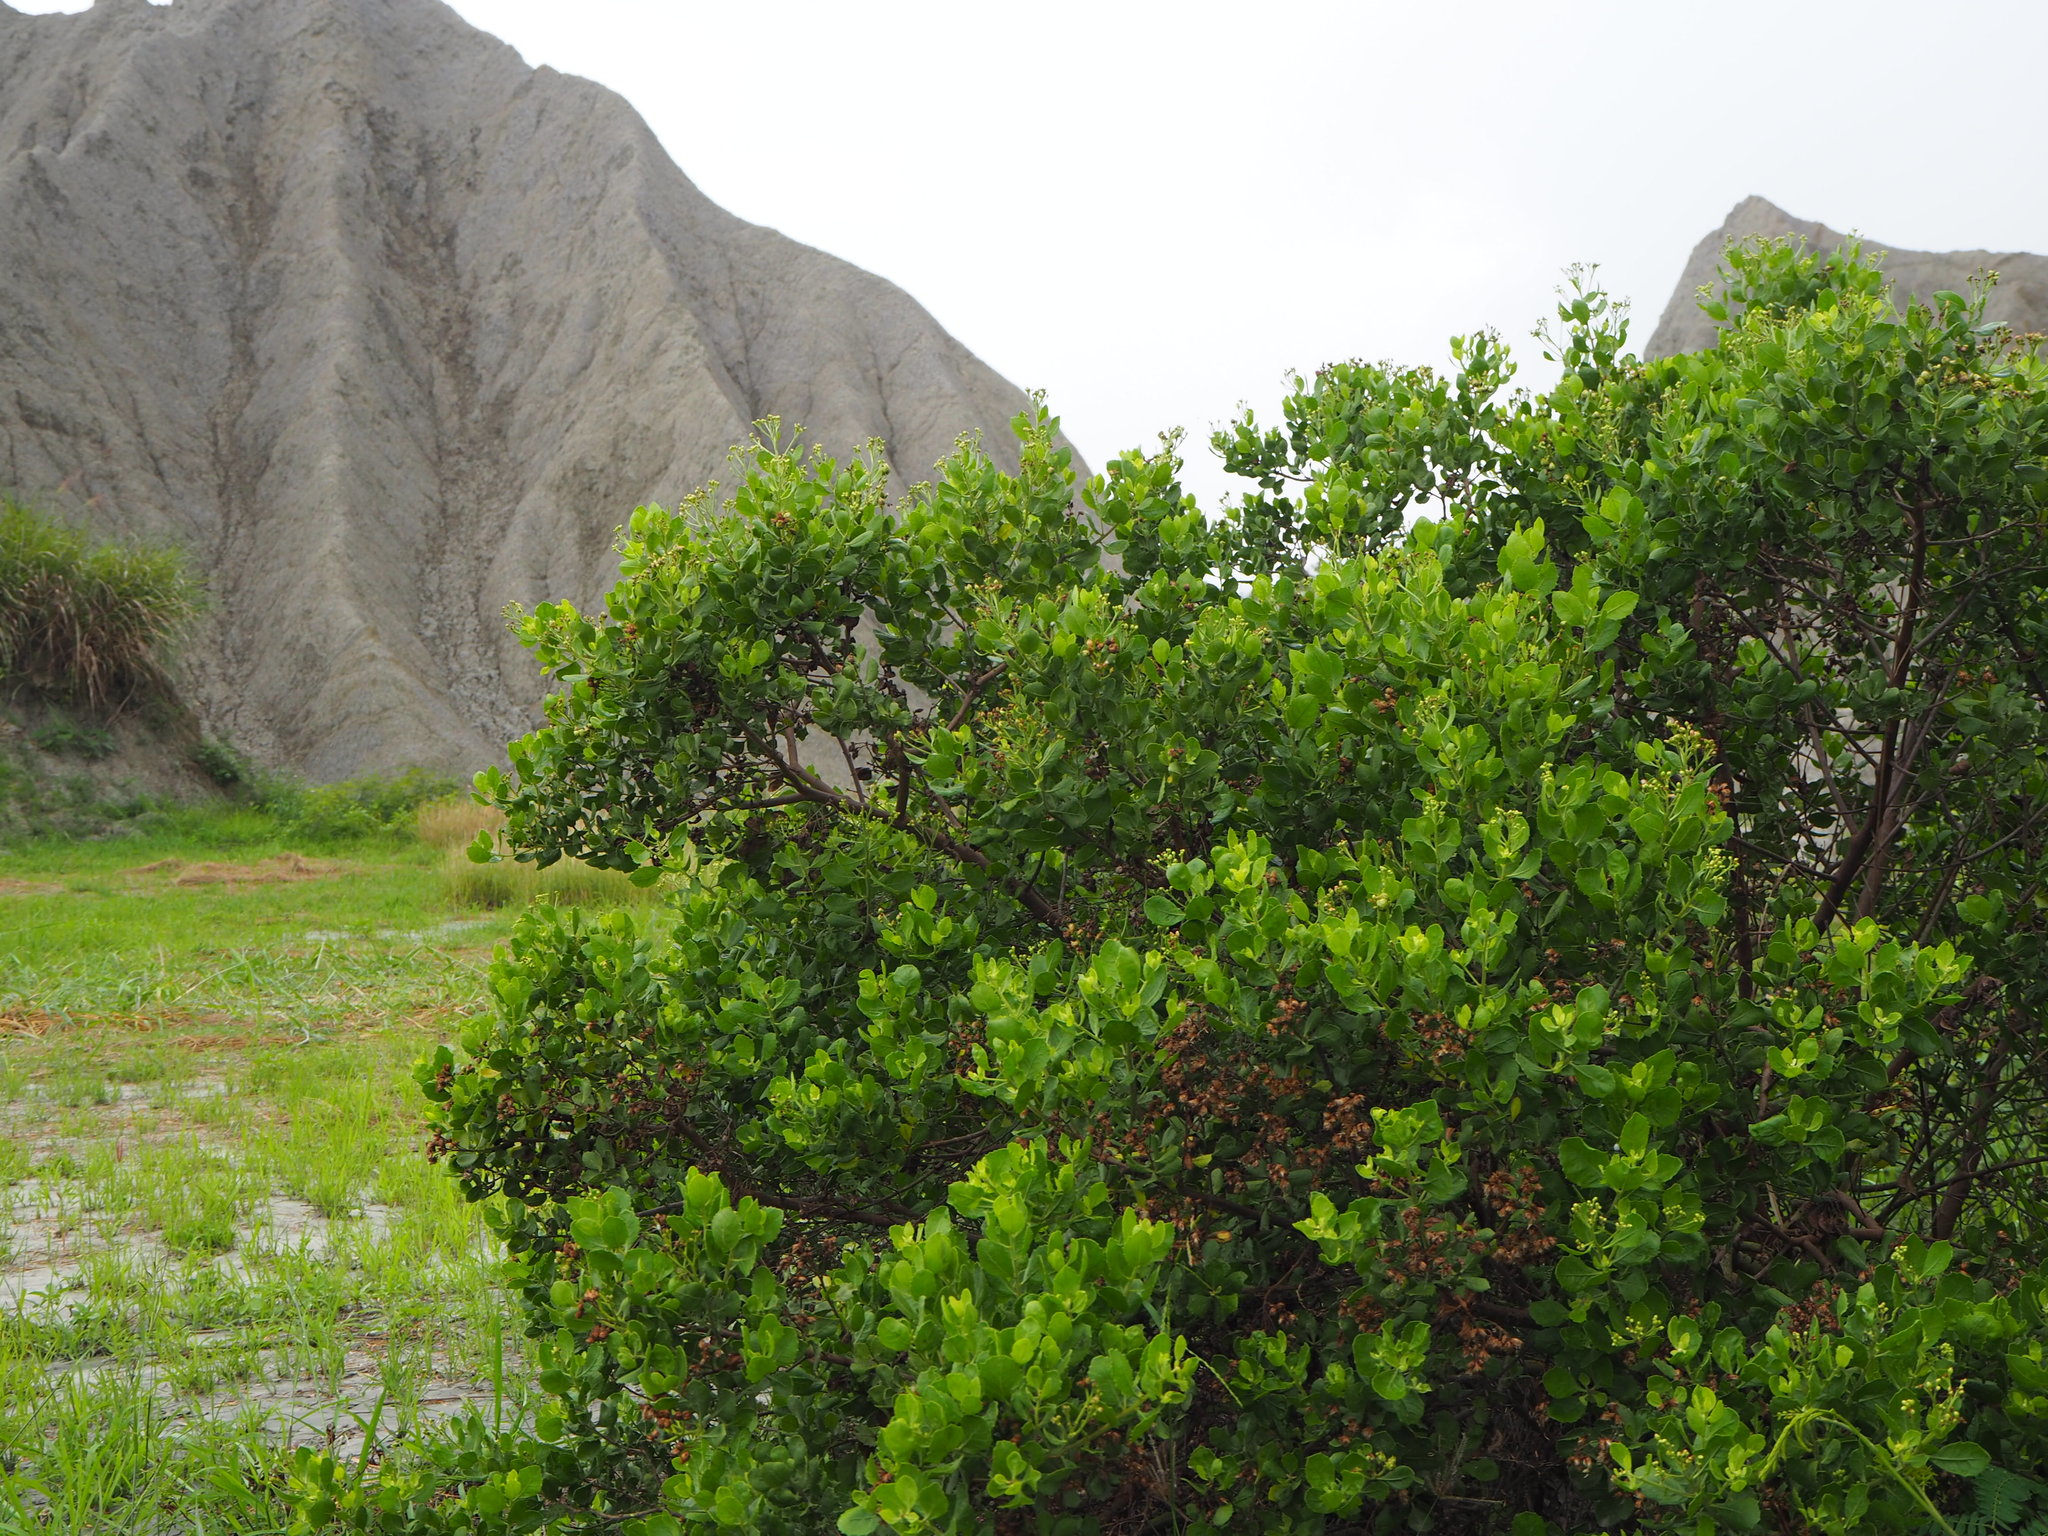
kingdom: Plantae
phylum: Tracheophyta
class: Magnoliopsida
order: Asterales
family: Asteraceae
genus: Pluchea
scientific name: Pluchea indica
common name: Indian fleabane
